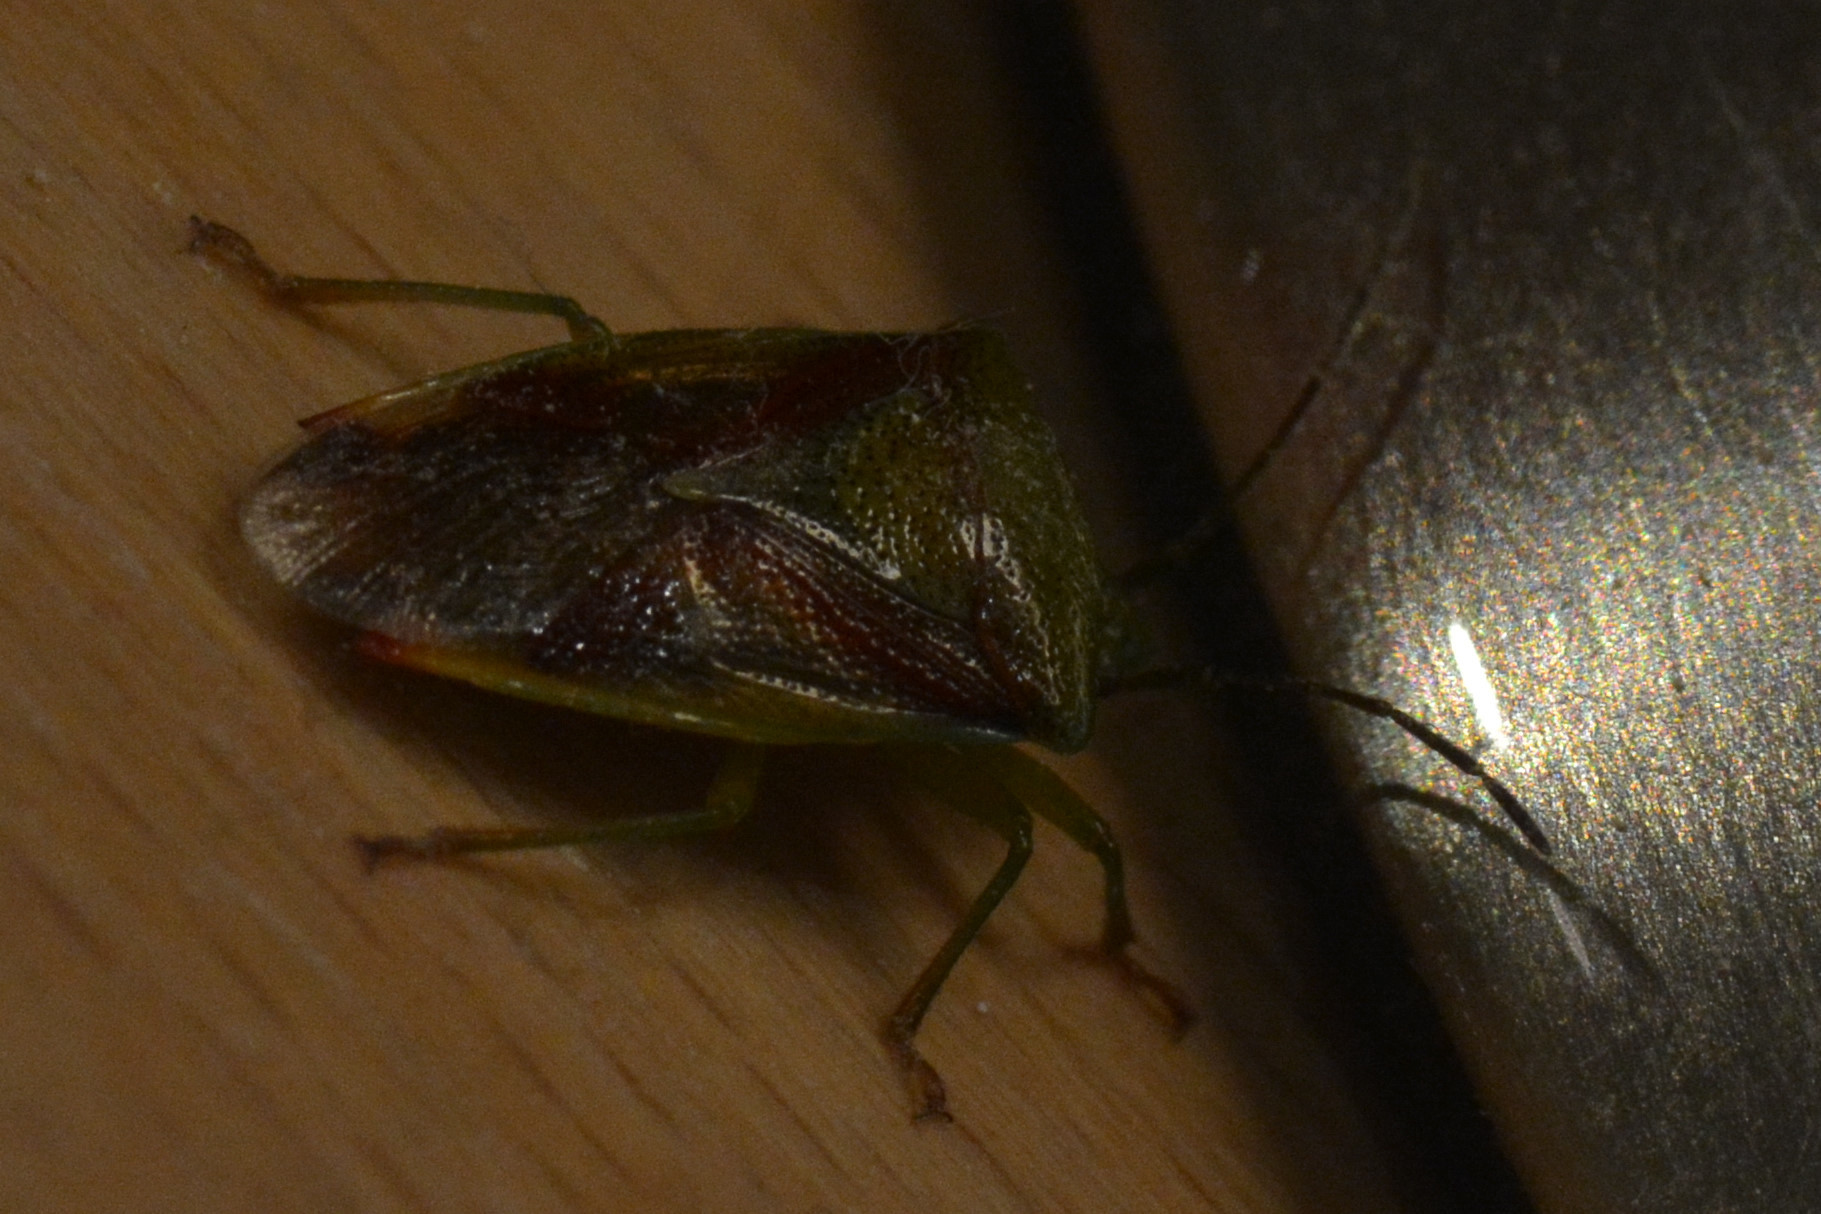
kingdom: Animalia
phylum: Arthropoda
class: Insecta
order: Hemiptera
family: Acanthosomatidae
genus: Elasmostethus
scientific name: Elasmostethus interstinctus
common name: Birch shieldbug
